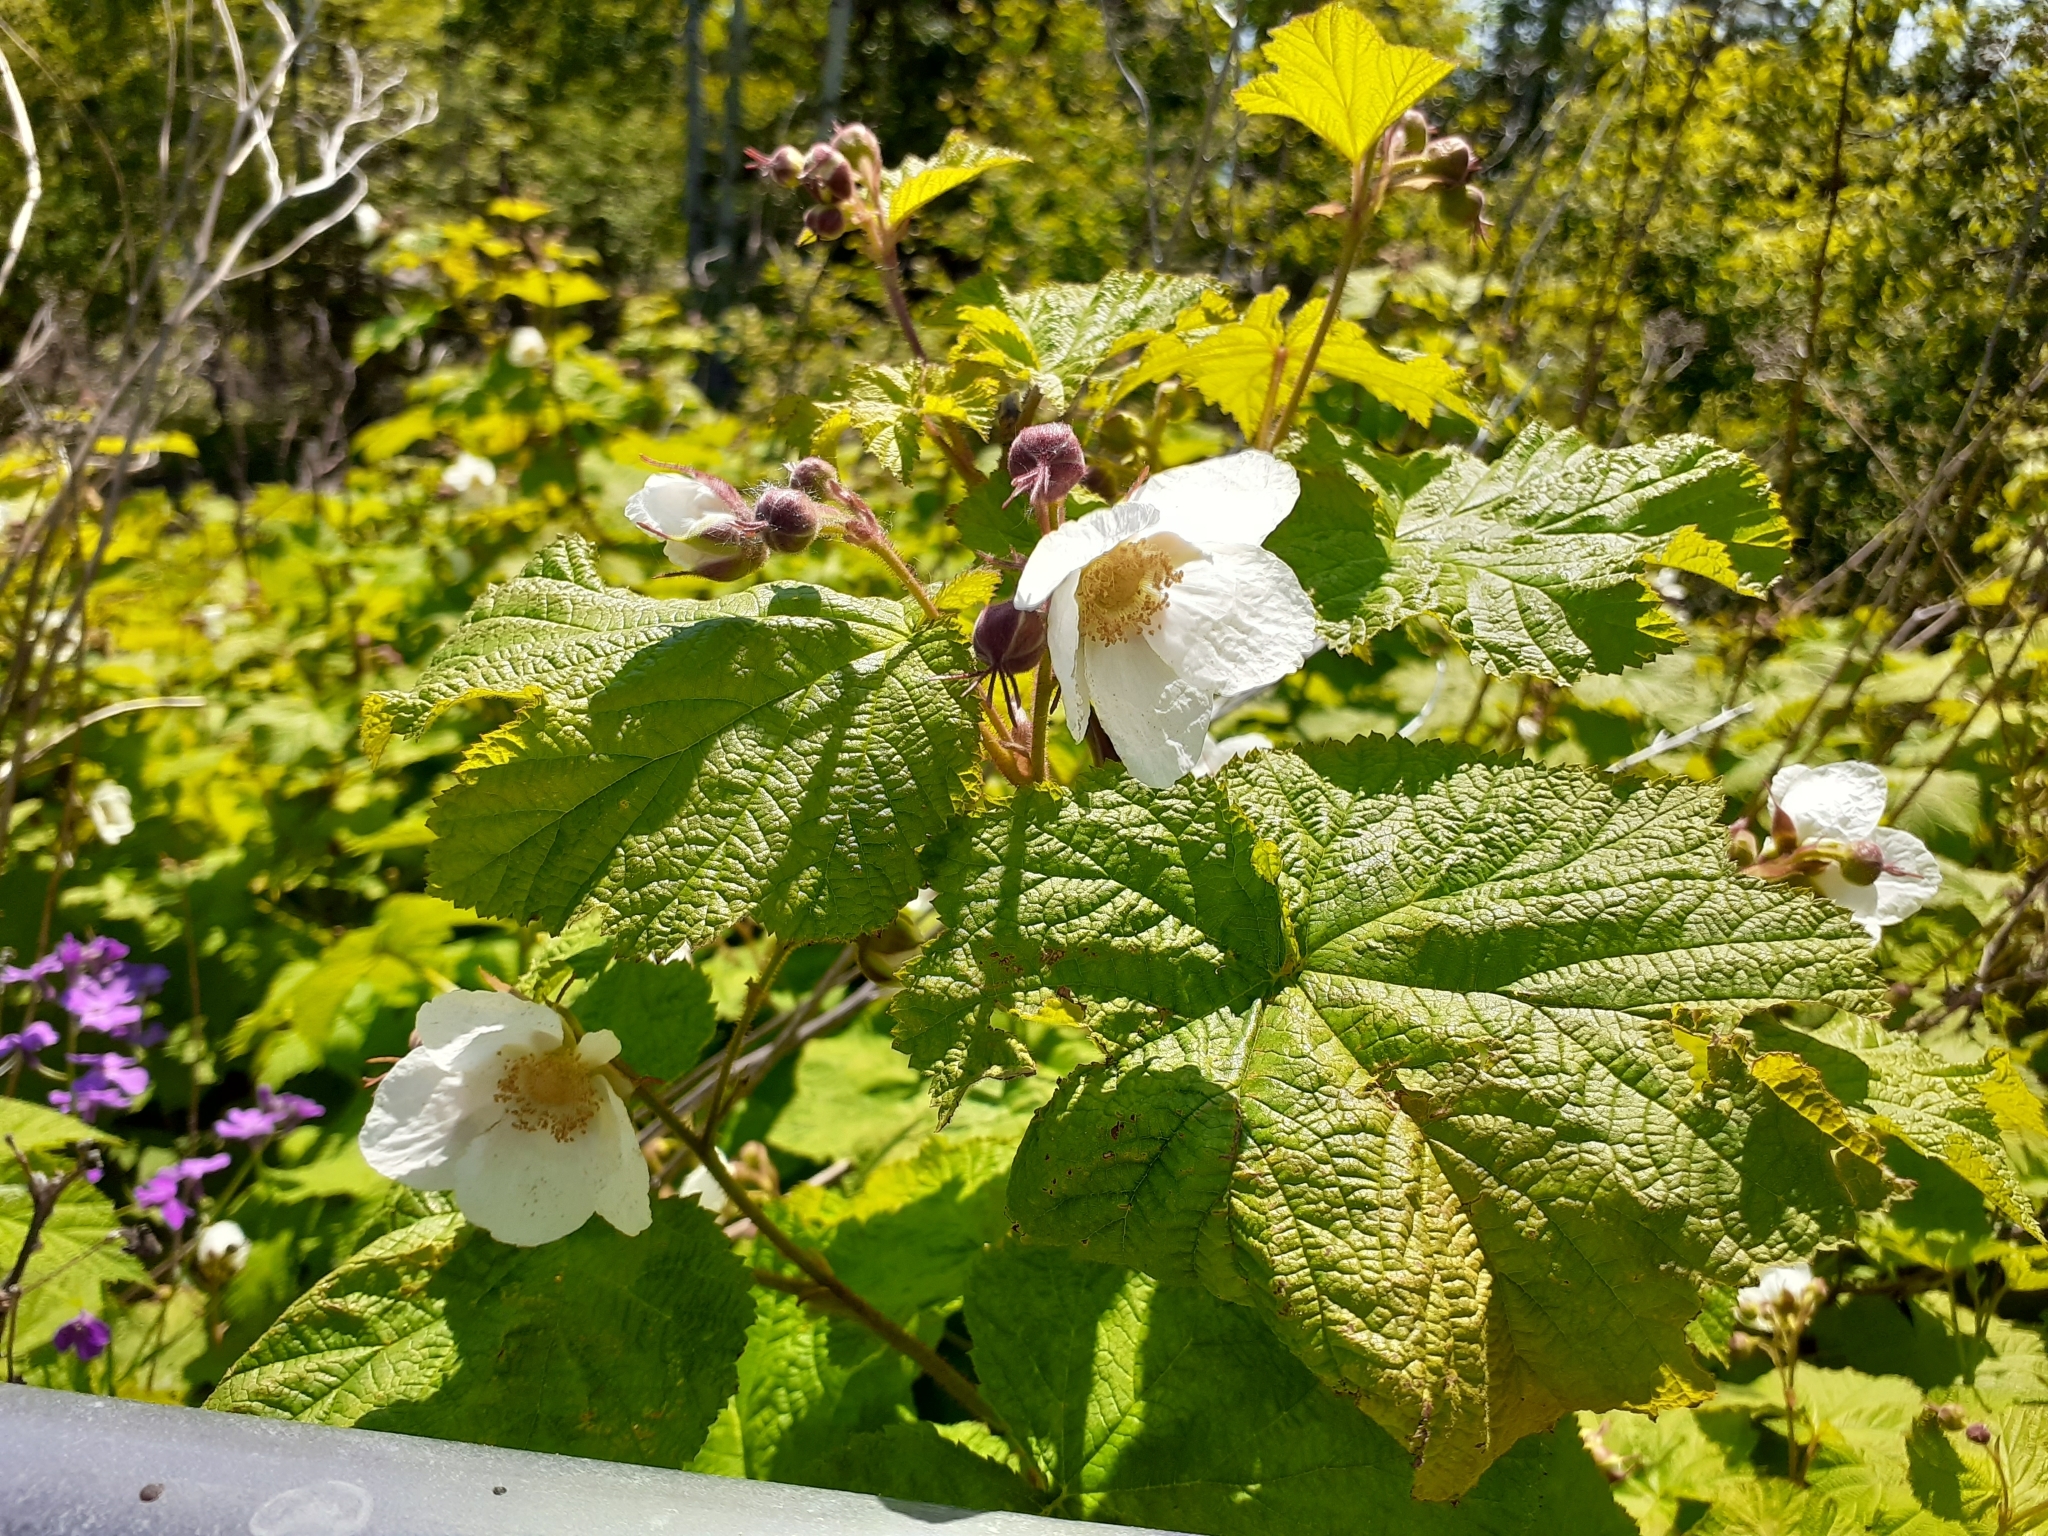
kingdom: Plantae
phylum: Tracheophyta
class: Magnoliopsida
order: Rosales
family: Rosaceae
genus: Rubus
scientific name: Rubus parviflorus
